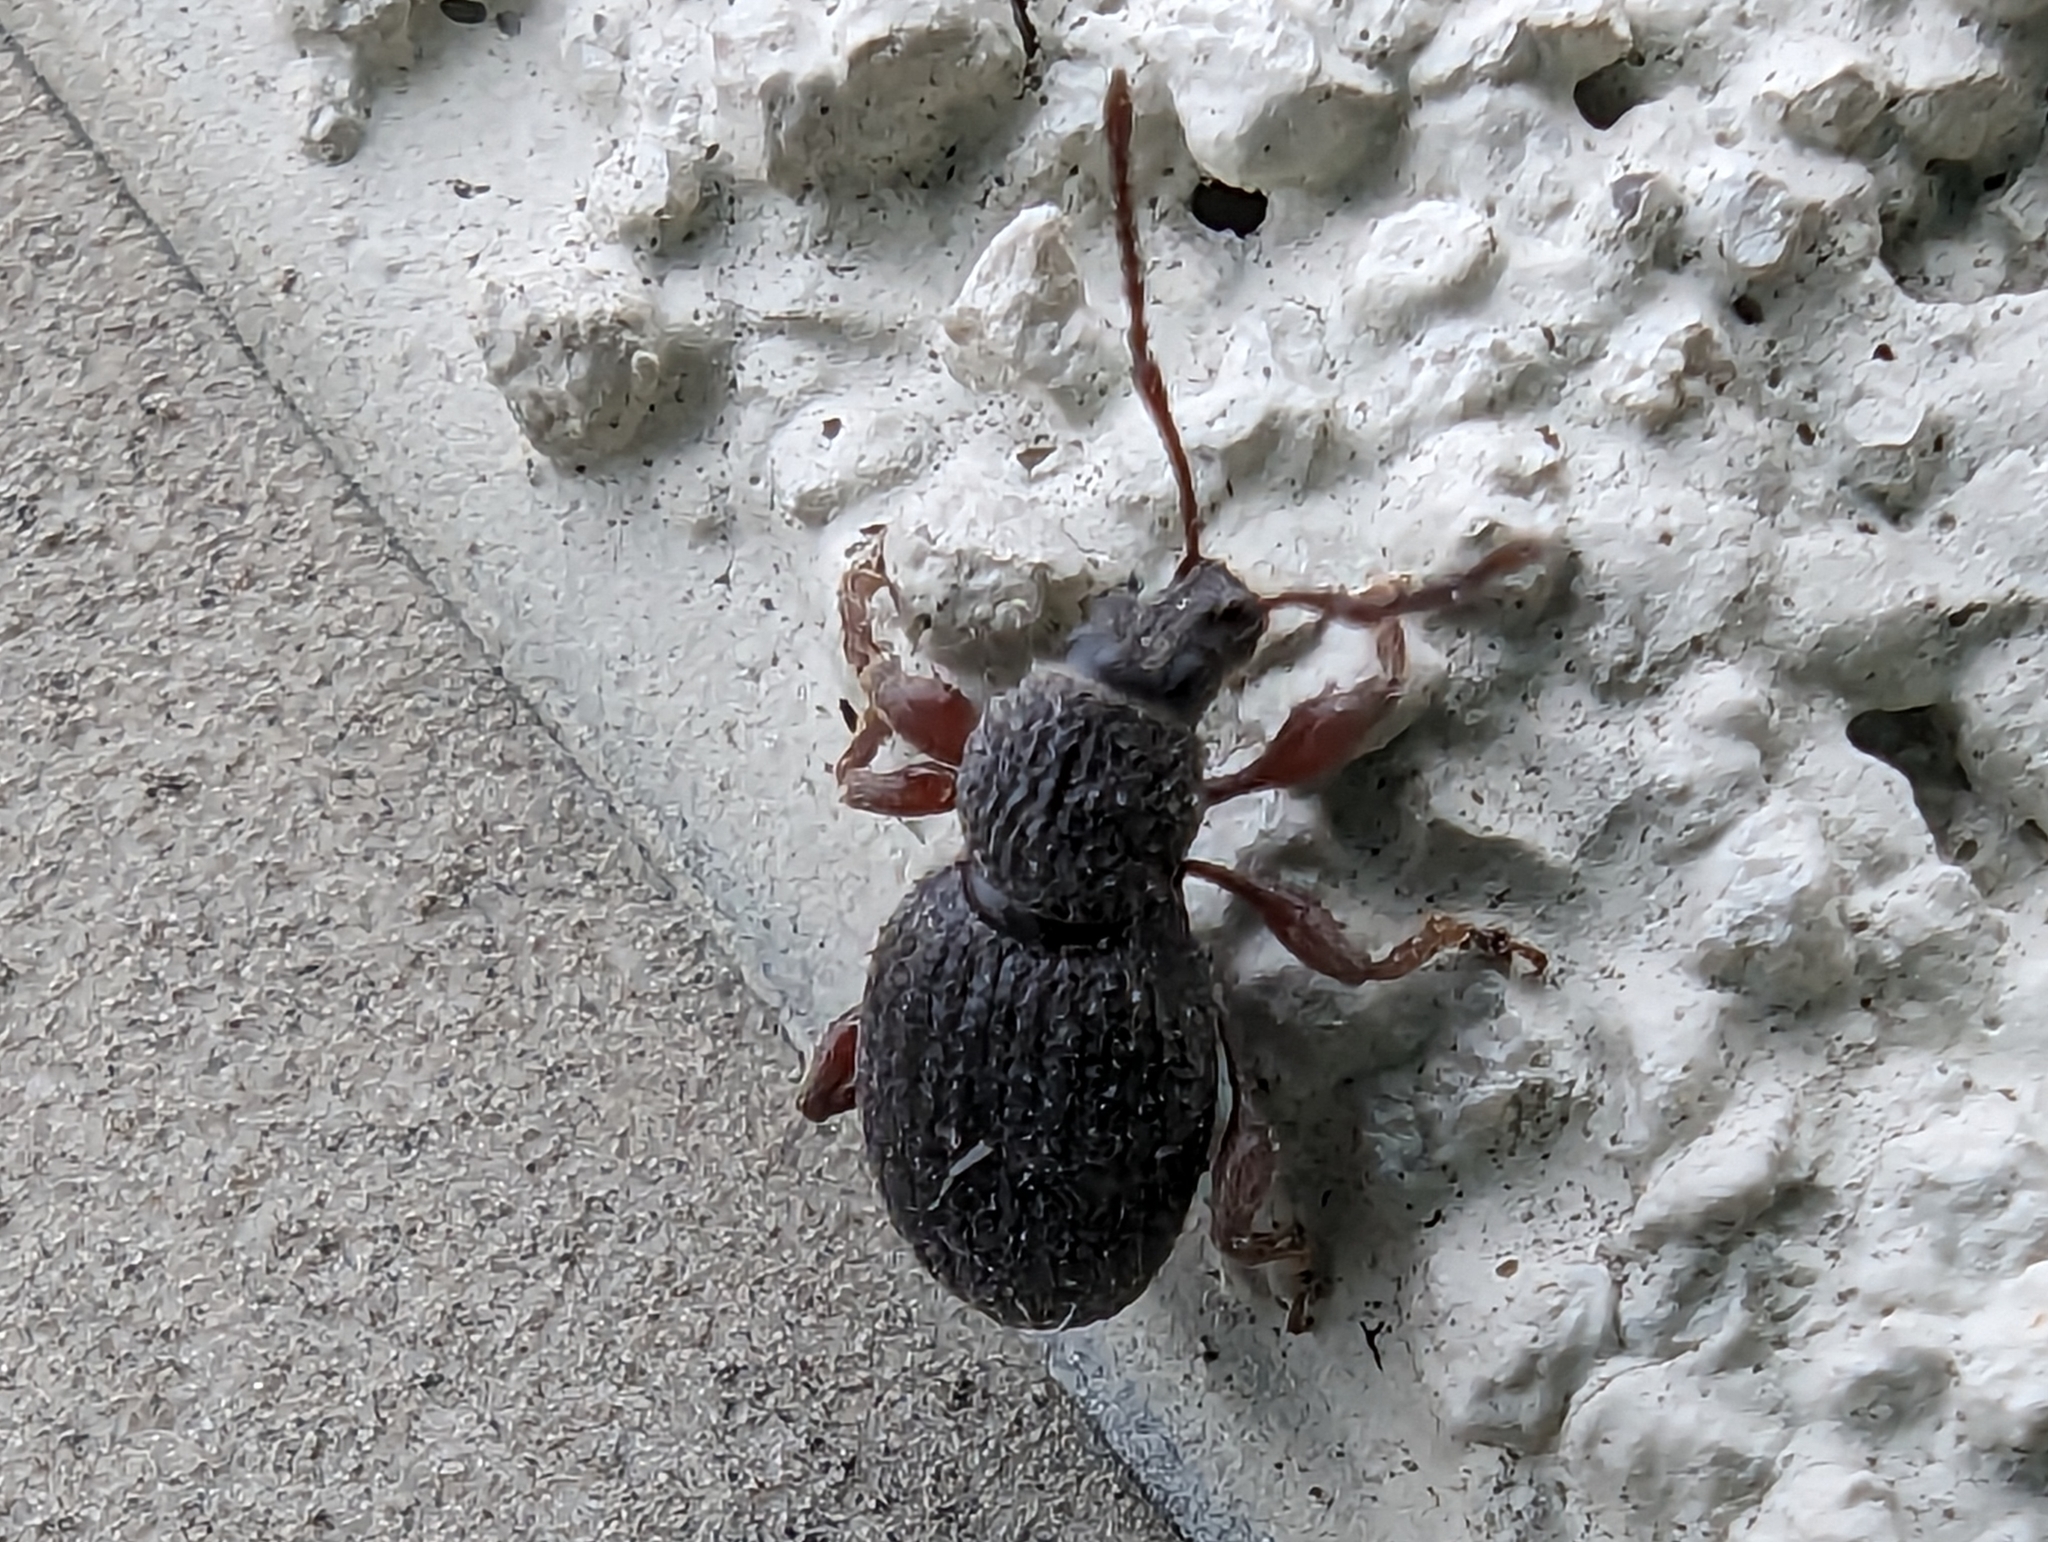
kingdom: Animalia
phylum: Arthropoda
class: Insecta
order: Coleoptera
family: Curculionidae
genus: Otiorhynchus
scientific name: Otiorhynchus ovatus
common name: Strawberry root weevil
